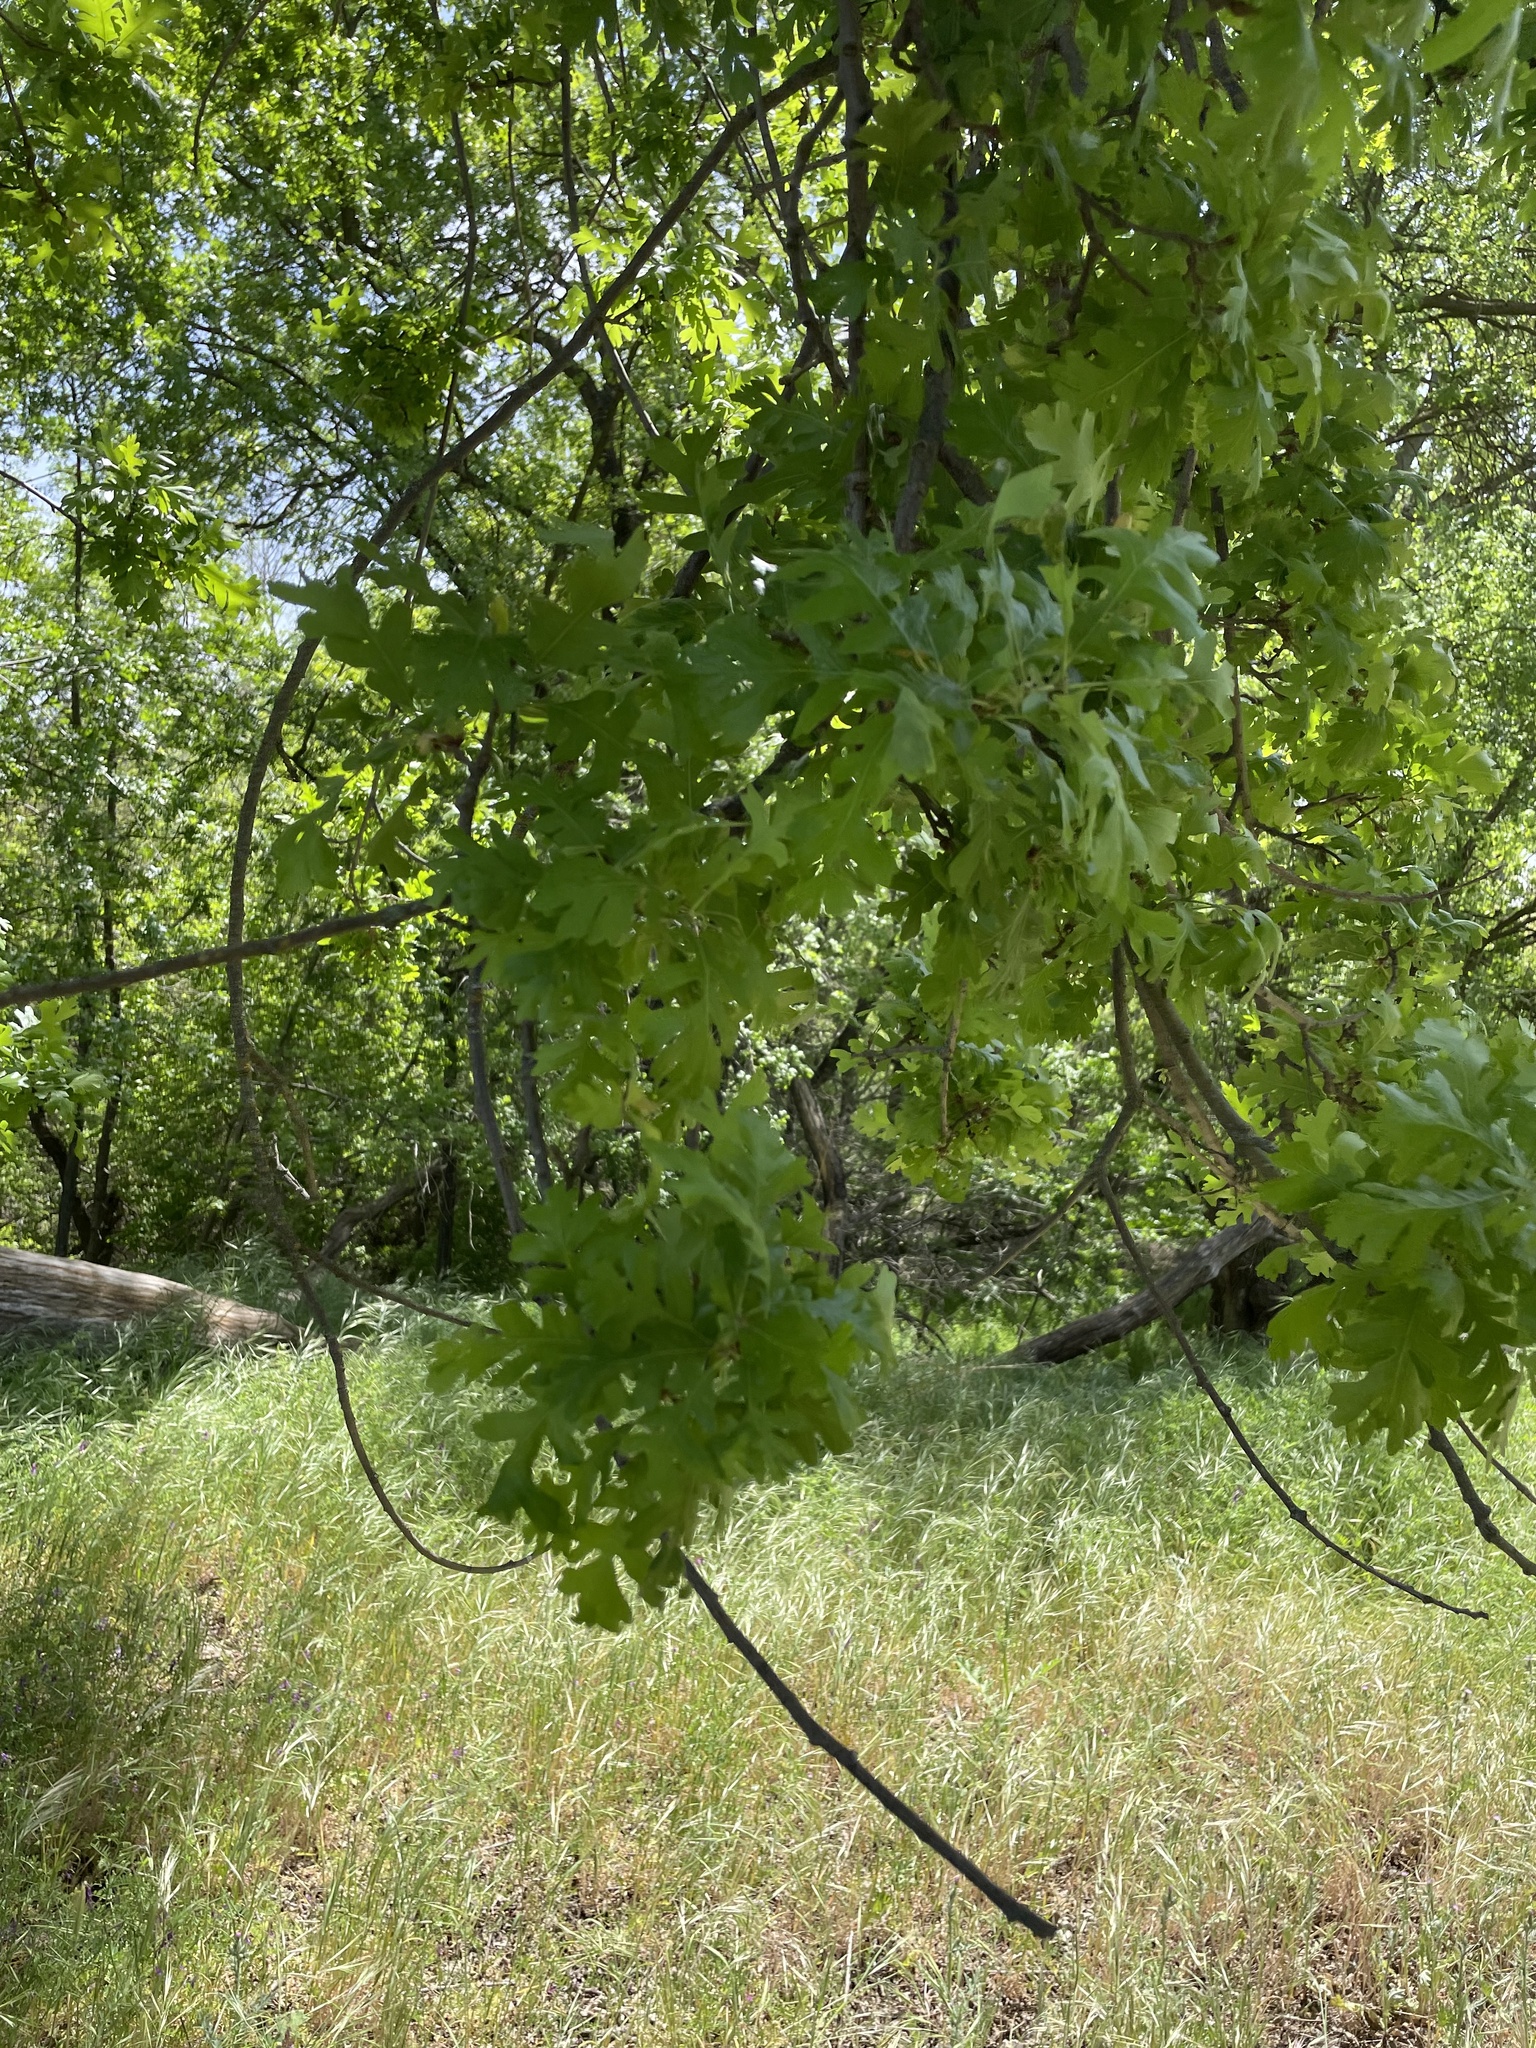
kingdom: Plantae
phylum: Tracheophyta
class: Magnoliopsida
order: Fagales
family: Fagaceae
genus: Quercus
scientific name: Quercus lobata
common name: Valley oak
